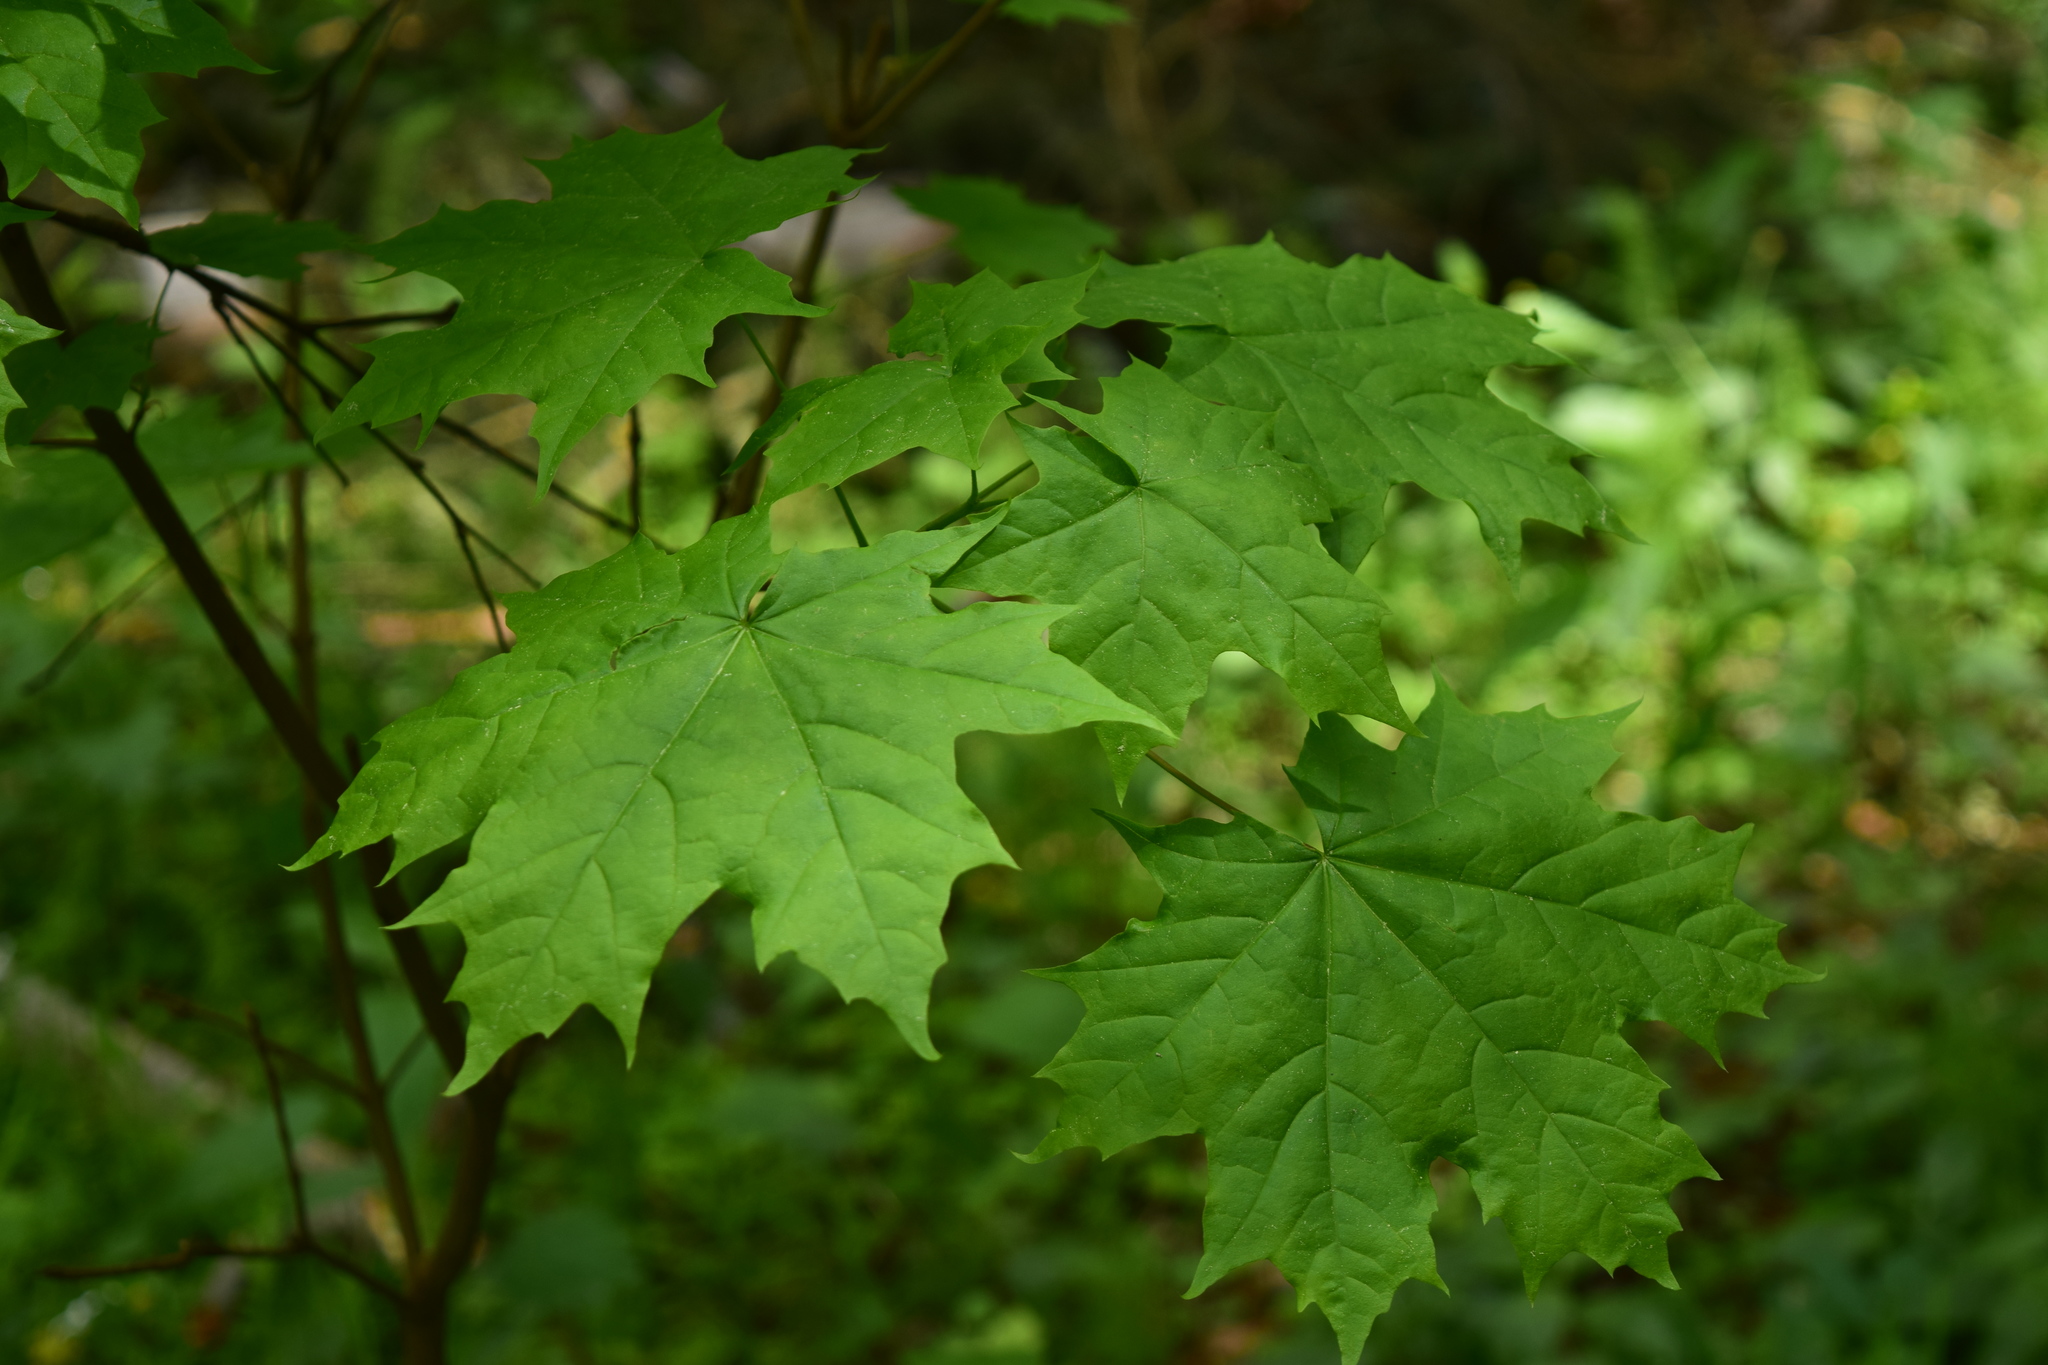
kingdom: Plantae
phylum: Tracheophyta
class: Magnoliopsida
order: Sapindales
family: Sapindaceae
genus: Acer
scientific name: Acer platanoides
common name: Norway maple
